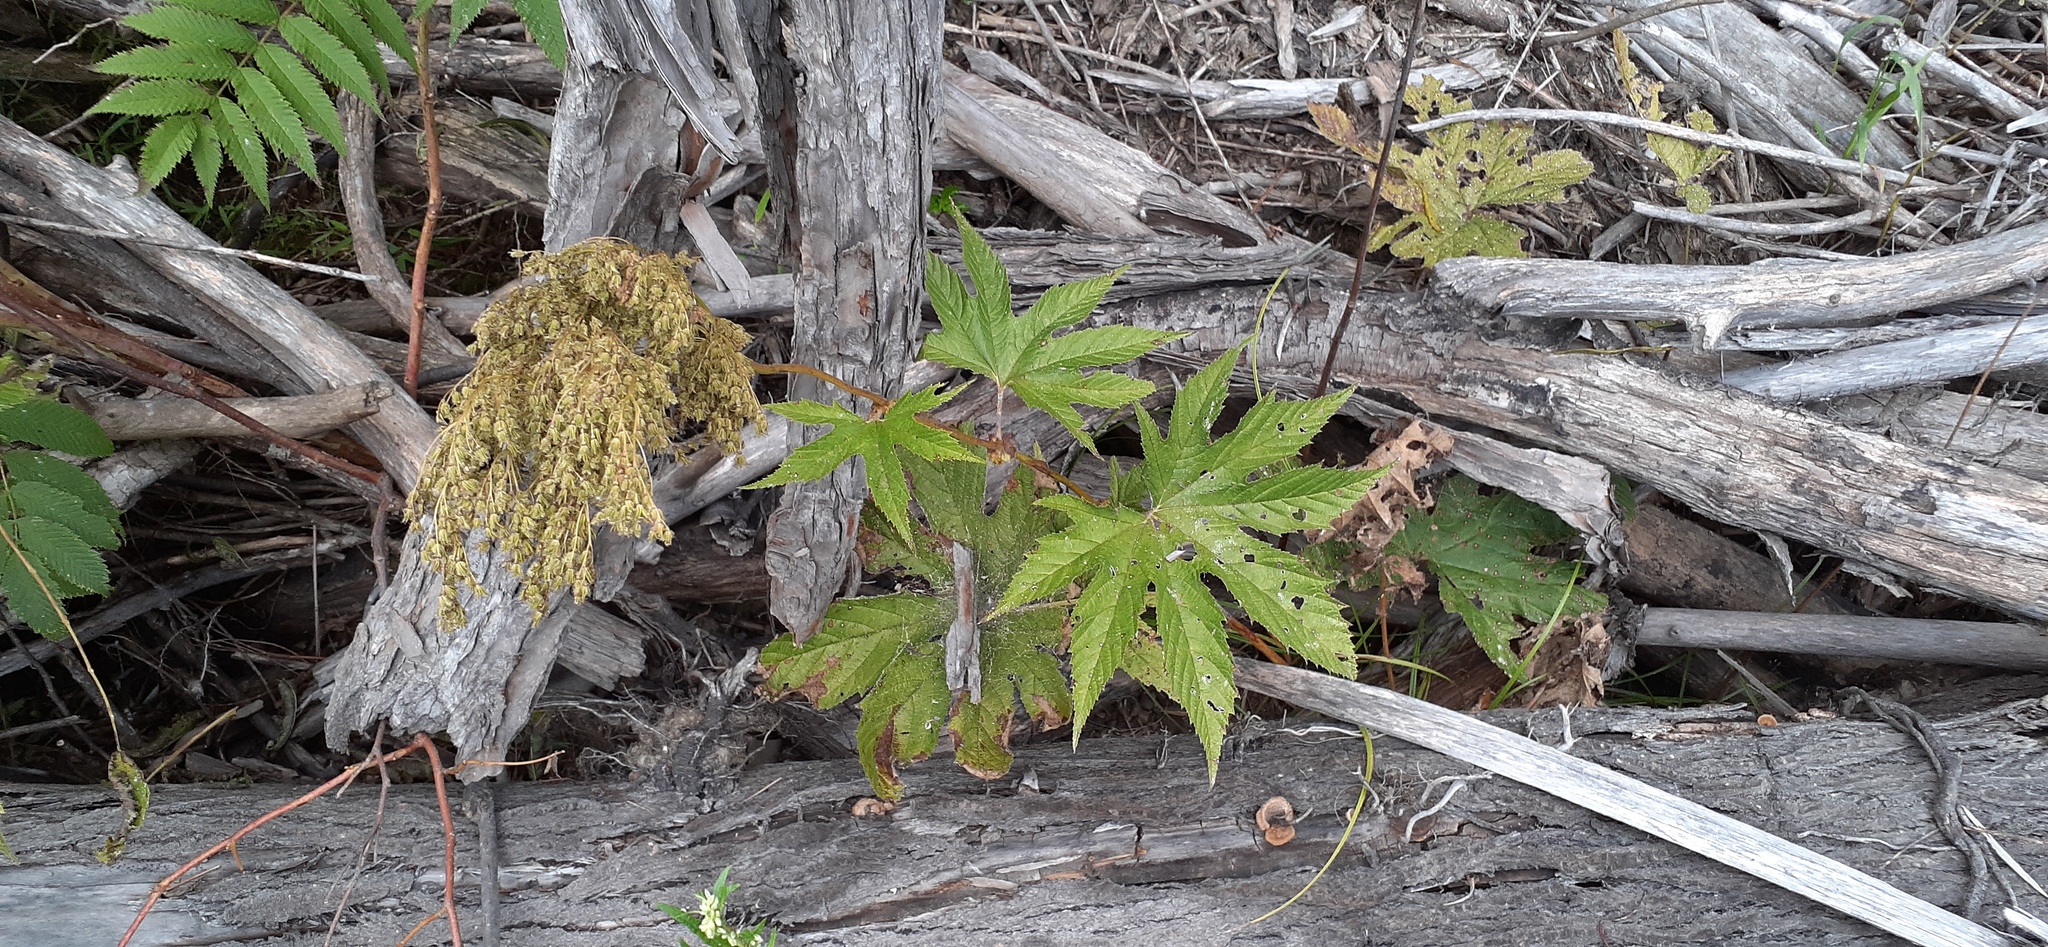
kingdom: Plantae
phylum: Tracheophyta
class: Magnoliopsida
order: Rosales
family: Rosaceae
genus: Filipendula
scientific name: Filipendula digitata
